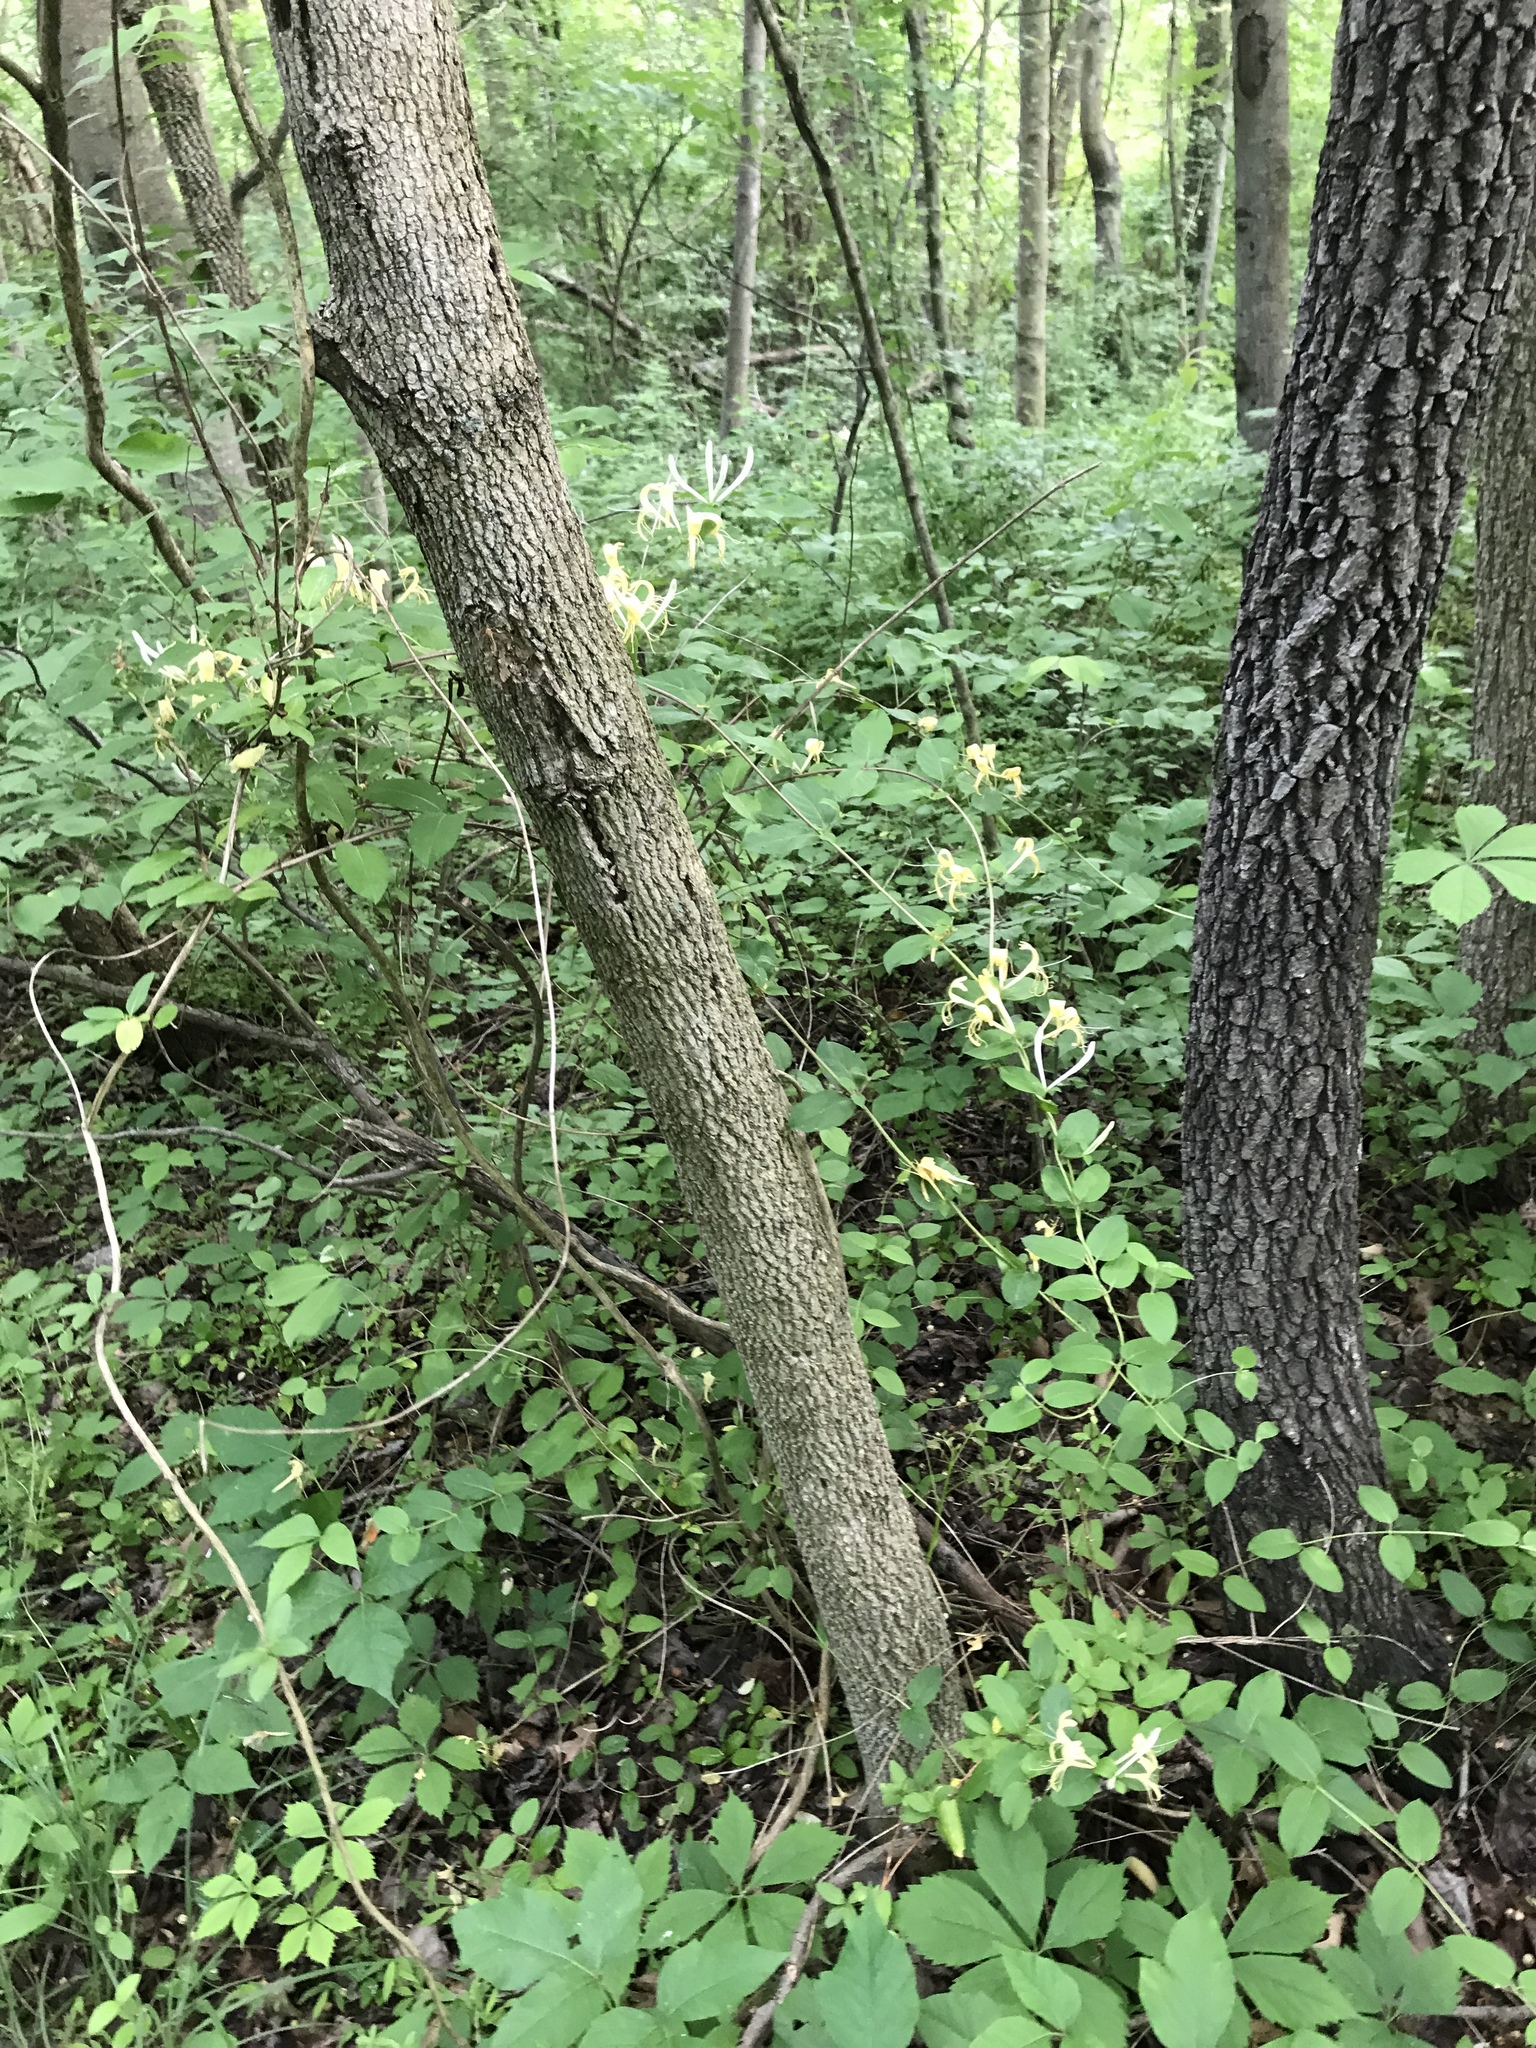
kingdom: Plantae
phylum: Tracheophyta
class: Magnoliopsida
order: Dipsacales
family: Caprifoliaceae
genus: Lonicera
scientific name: Lonicera japonica
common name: Japanese honeysuckle
